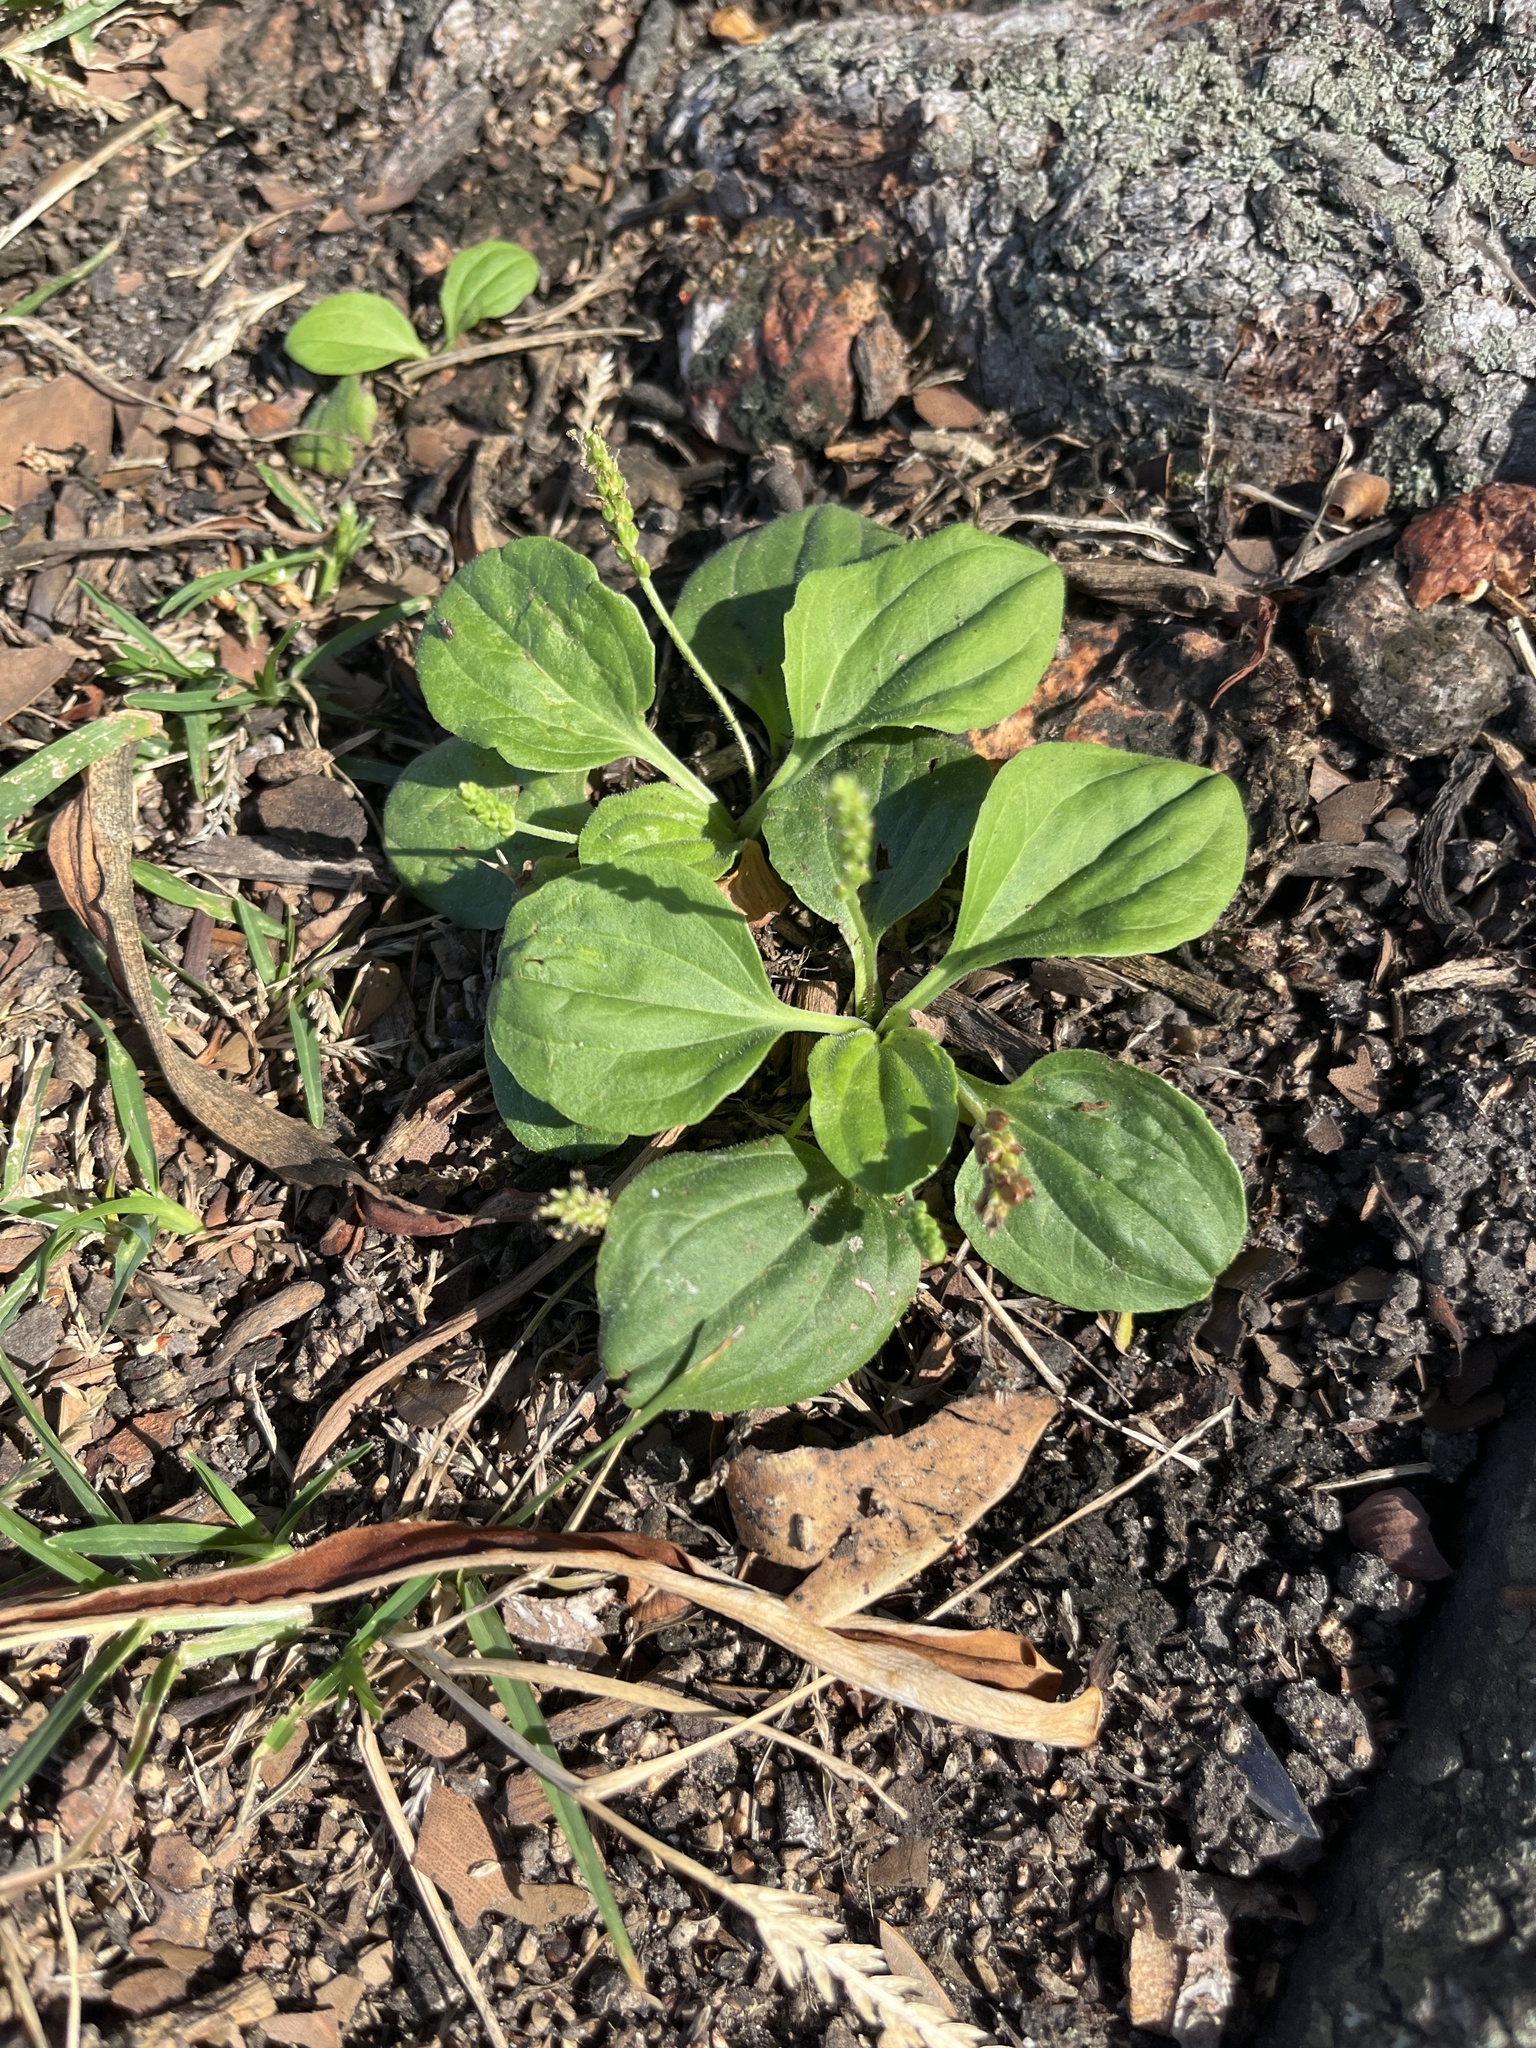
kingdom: Plantae
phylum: Tracheophyta
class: Magnoliopsida
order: Lamiales
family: Plantaginaceae
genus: Plantago
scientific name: Plantago major
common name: Common plantain
